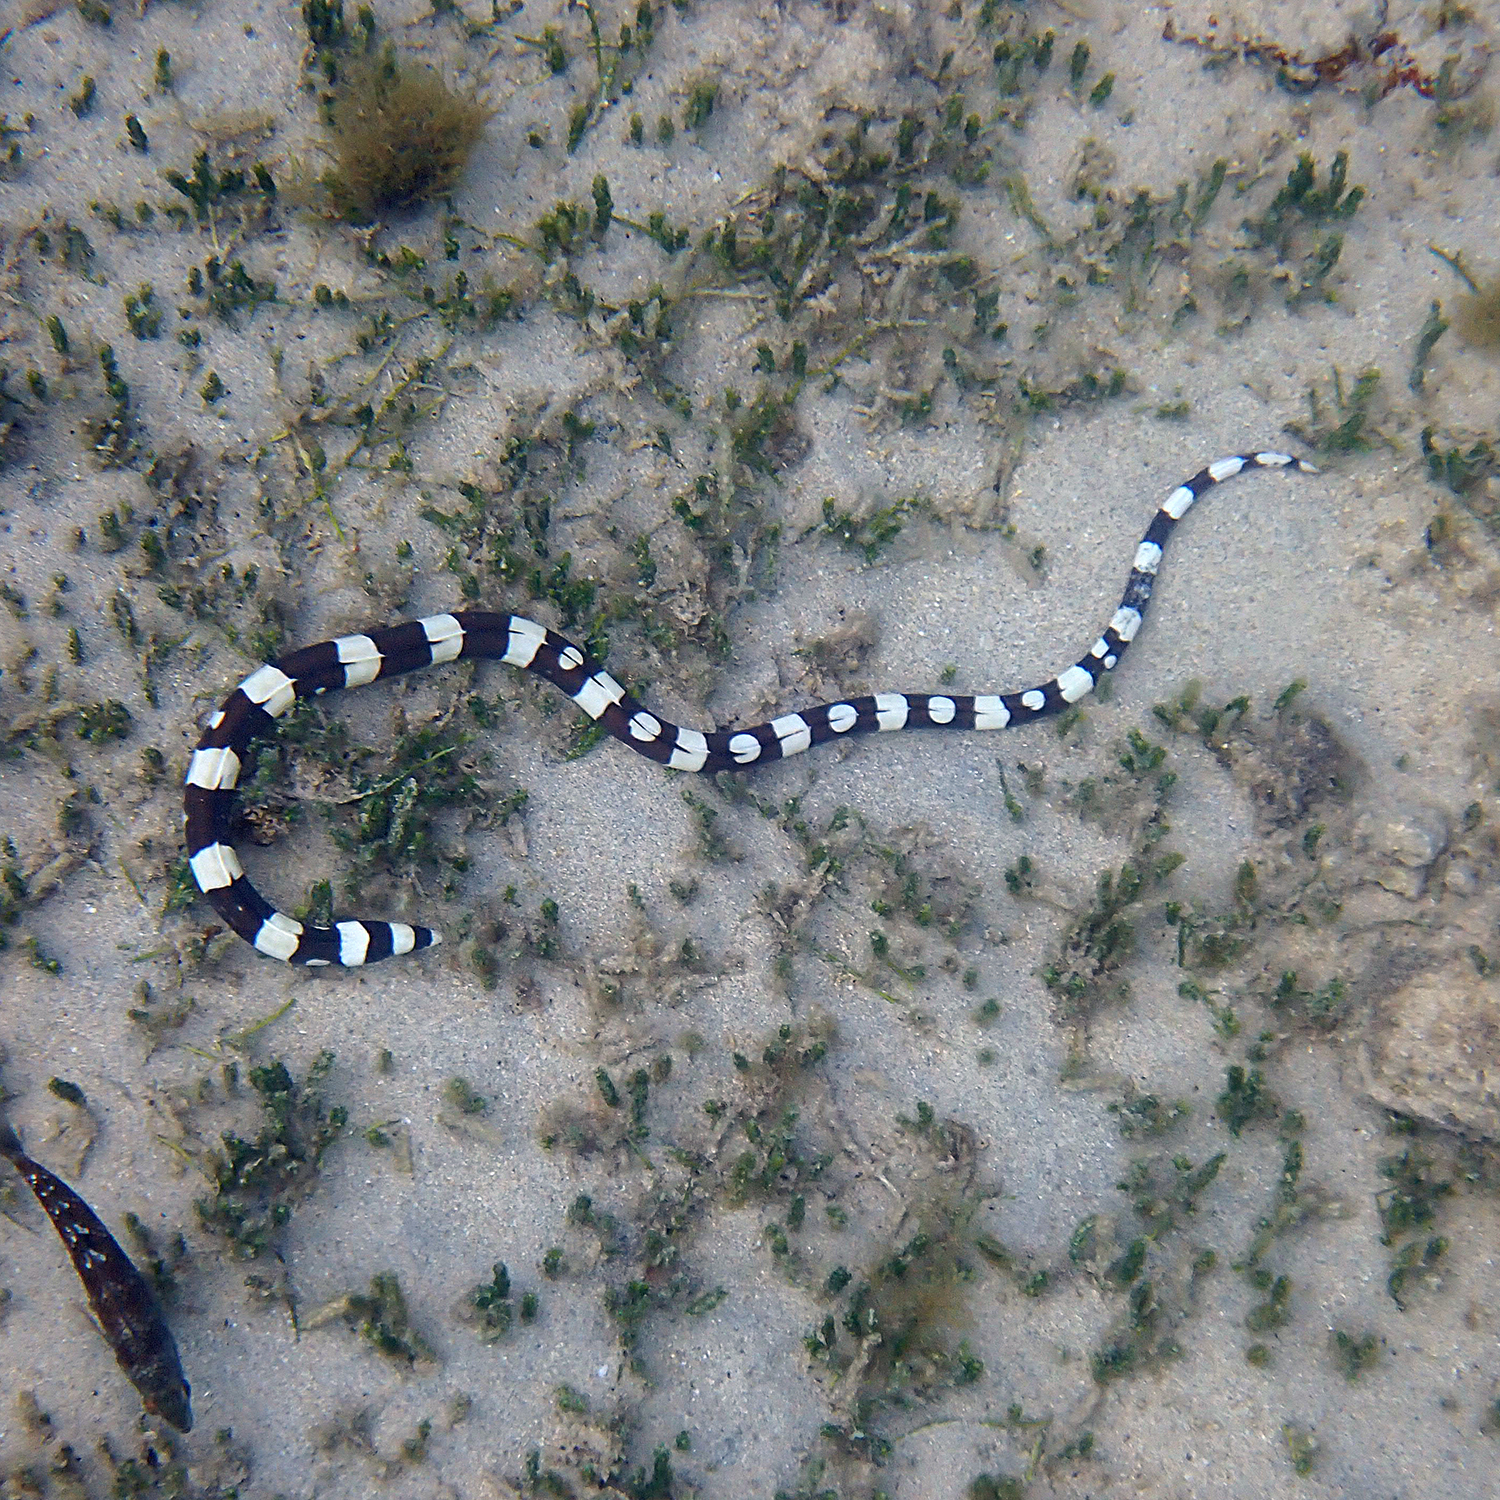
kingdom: Animalia
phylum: Chordata
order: Anguilliformes
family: Ophichthidae
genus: Leiuranus
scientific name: Leiuranus versicolor
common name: Convict snake eel
